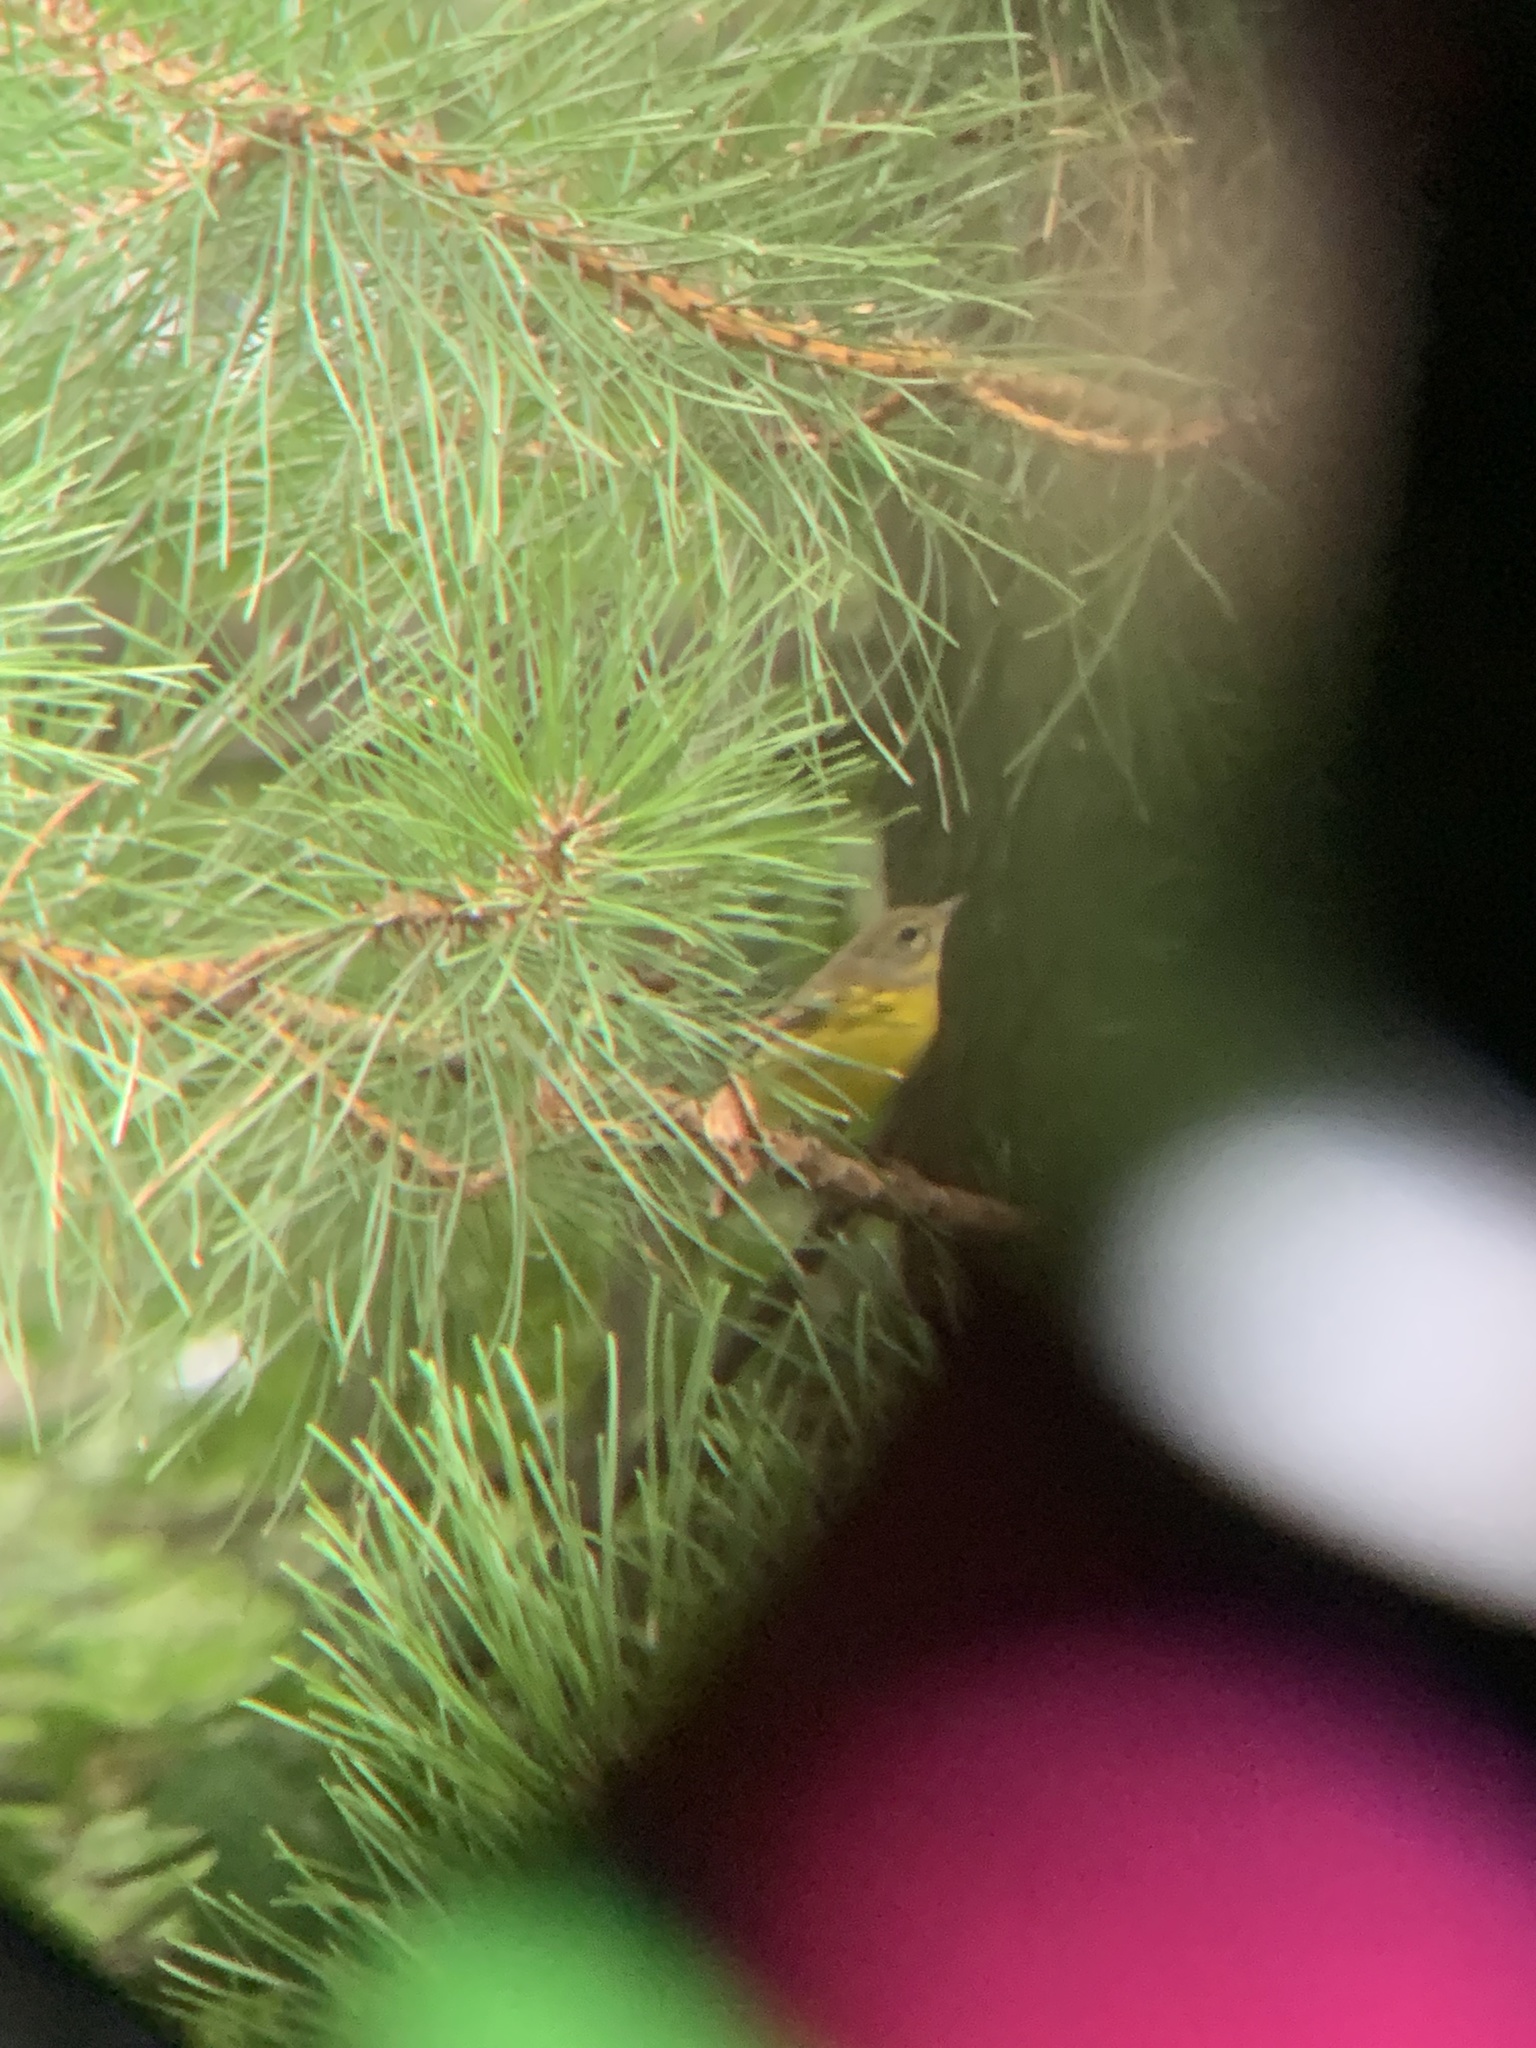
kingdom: Animalia
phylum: Chordata
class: Aves
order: Passeriformes
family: Parulidae
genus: Setophaga
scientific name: Setophaga discolor
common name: Prairie warbler
